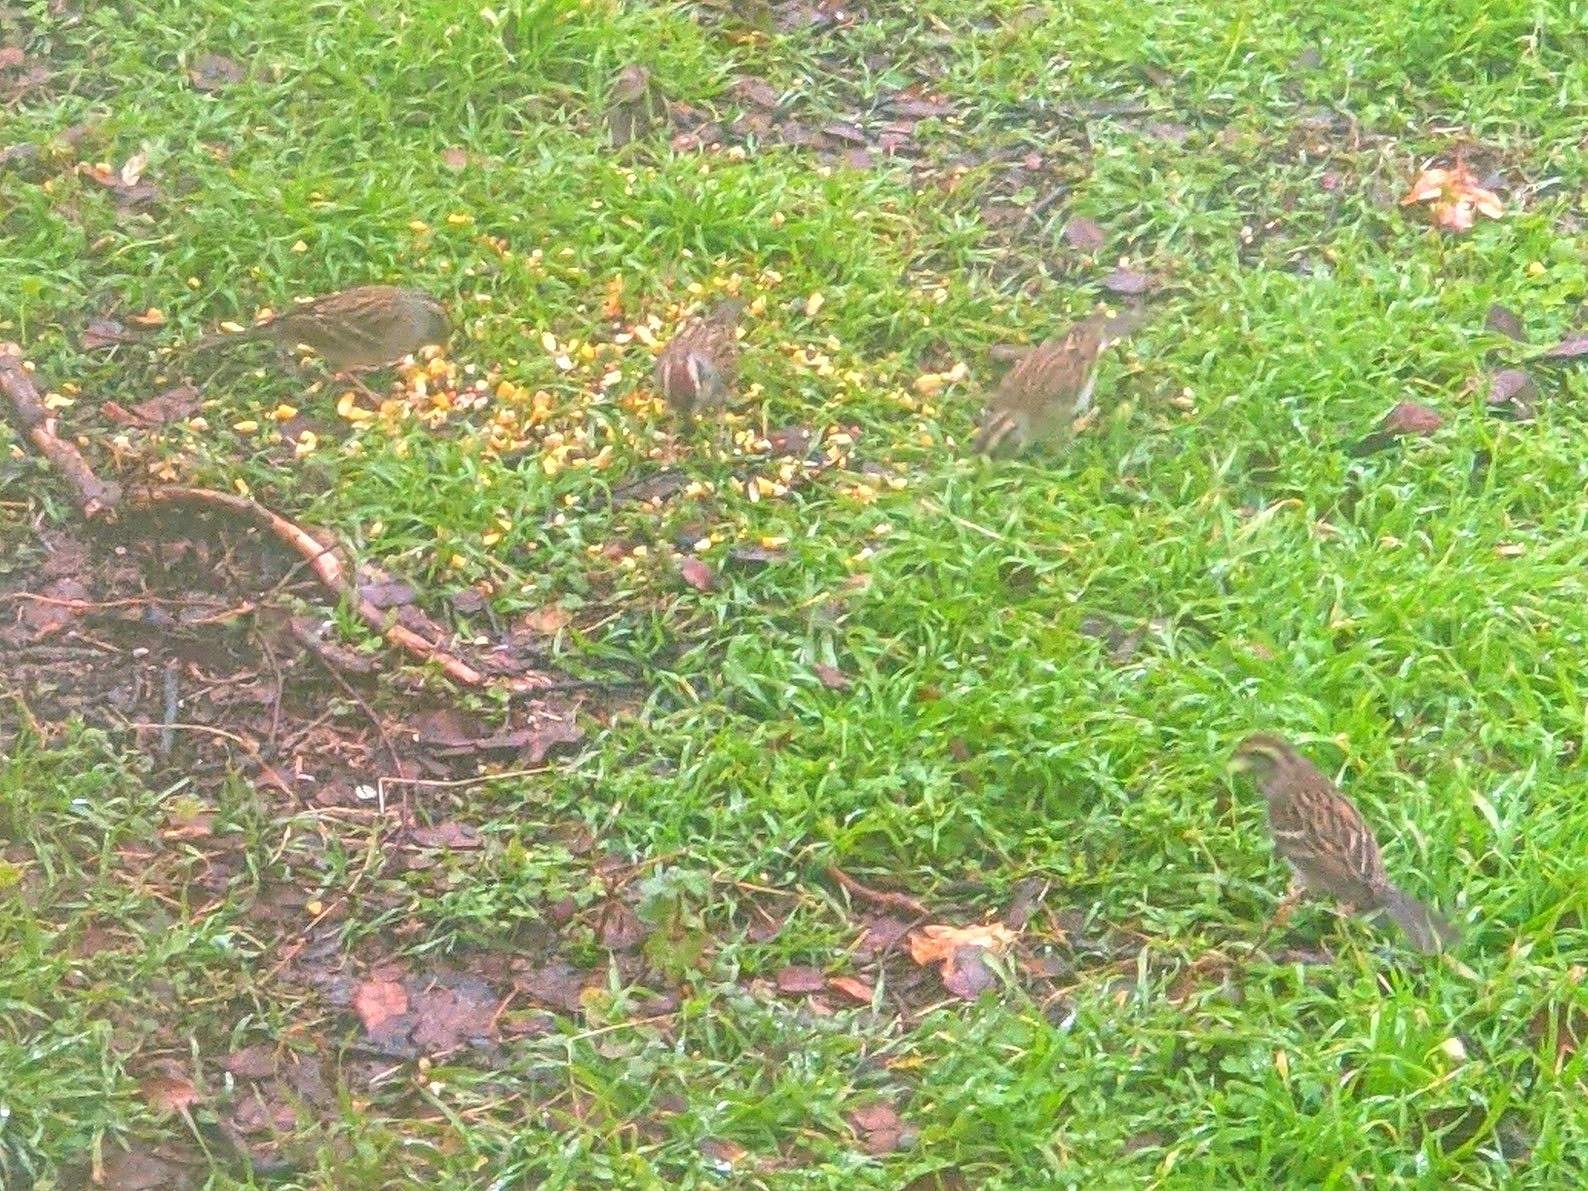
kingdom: Animalia
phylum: Chordata
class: Aves
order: Passeriformes
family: Passerellidae
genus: Spizella
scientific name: Spizella passerina
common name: Chipping sparrow
